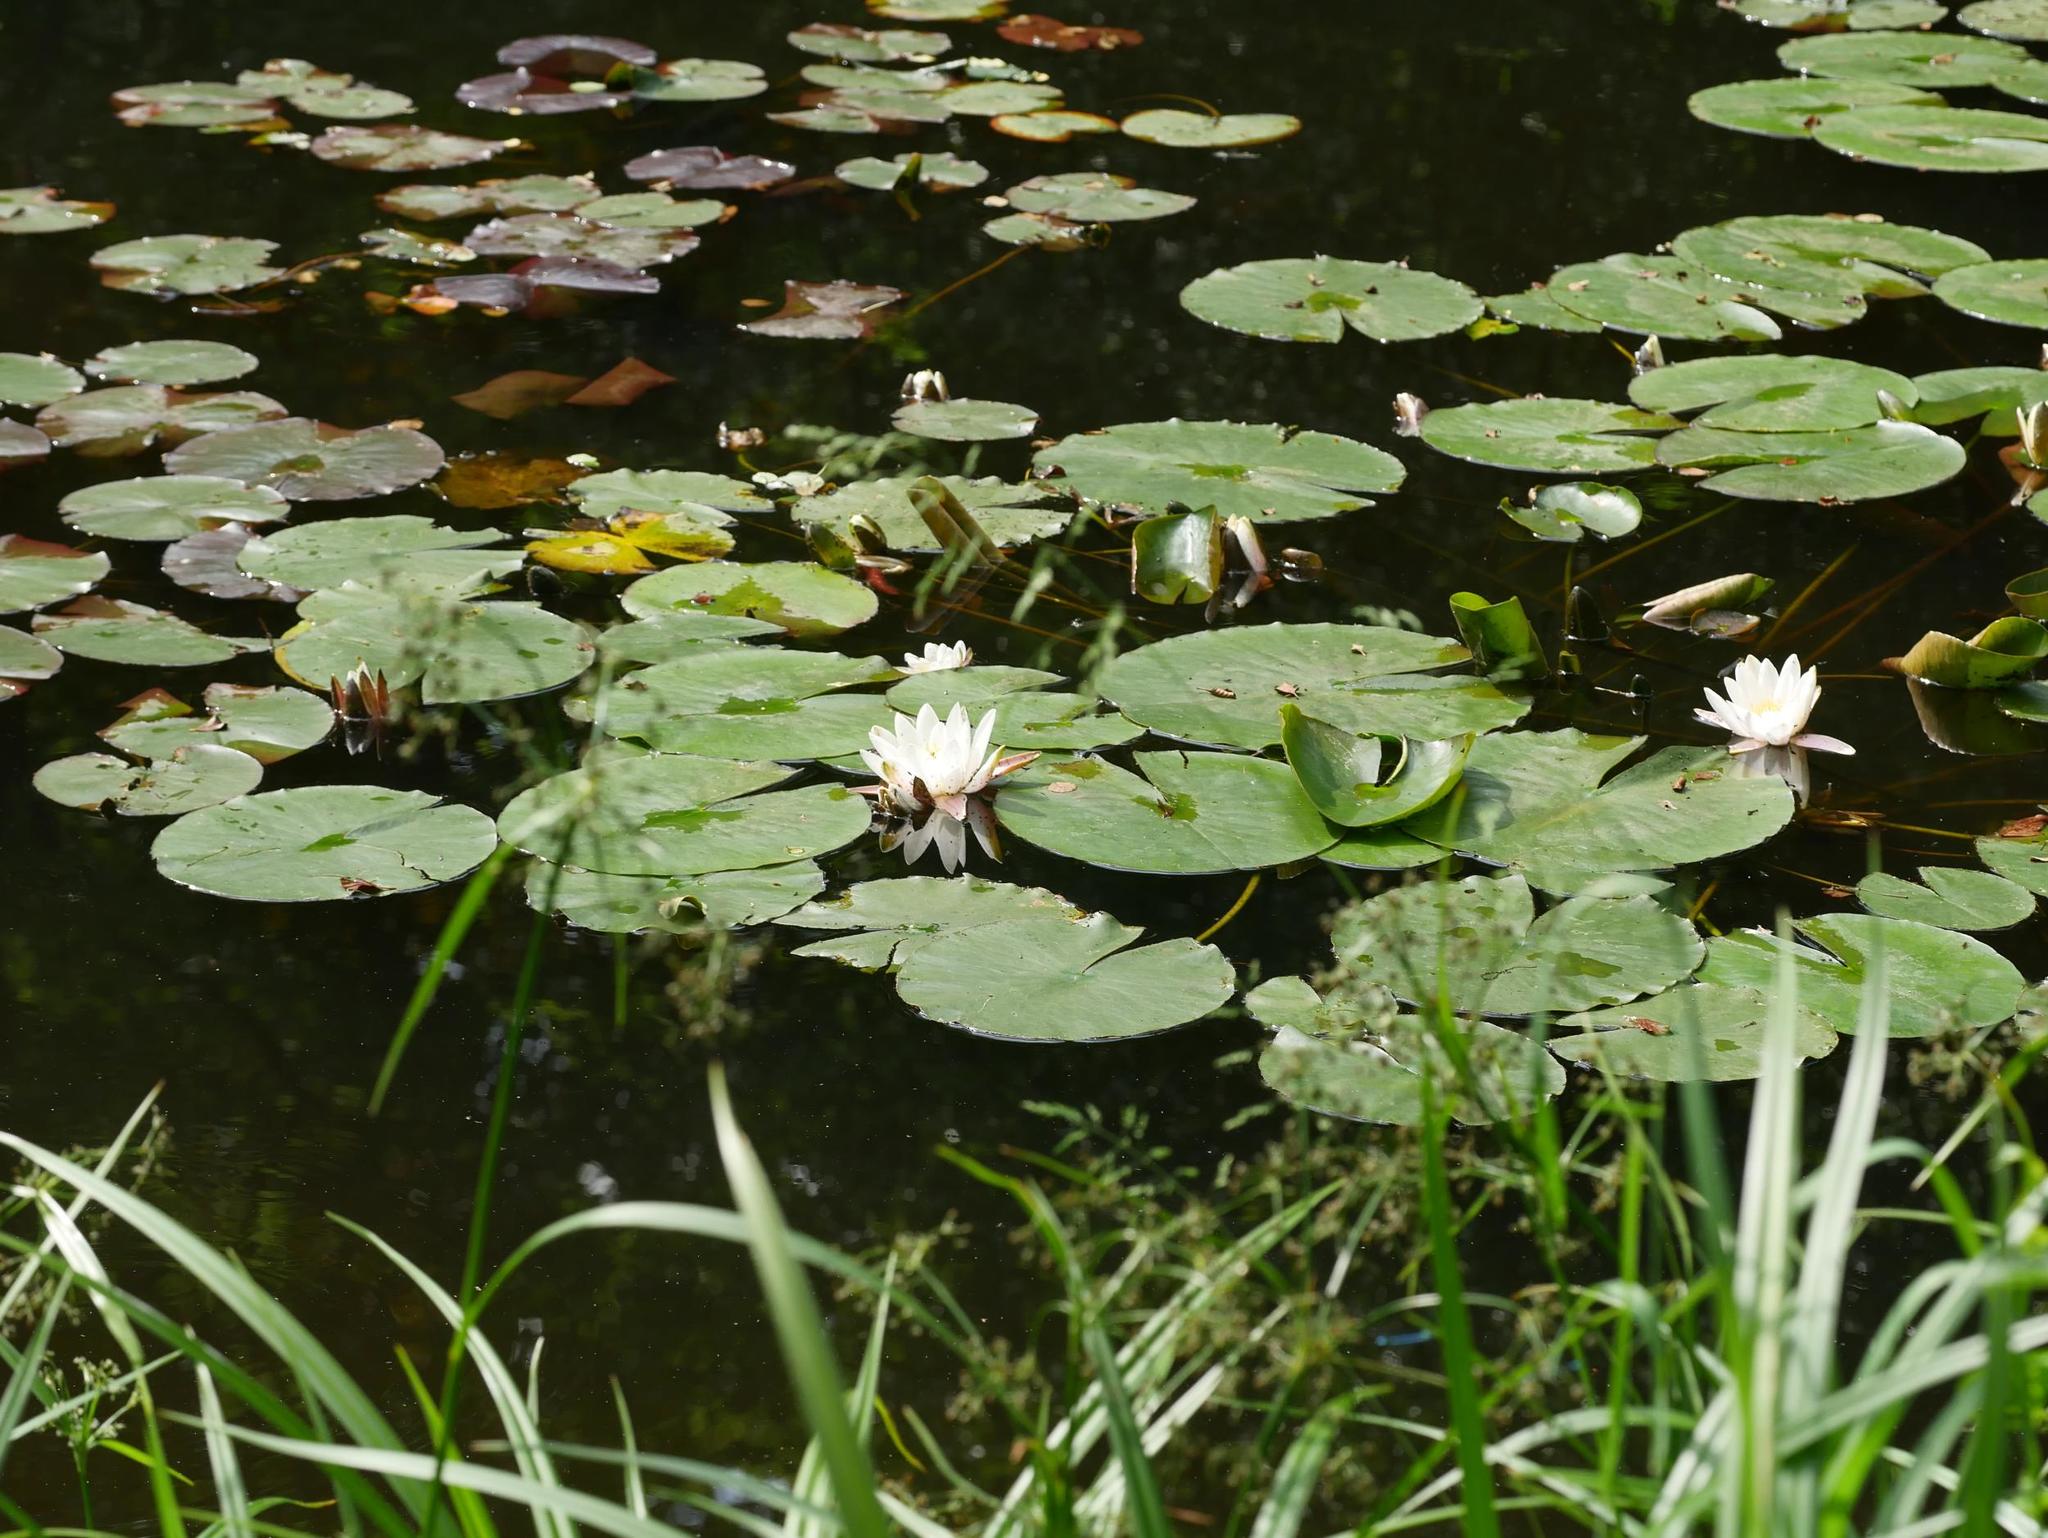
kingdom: Plantae
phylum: Tracheophyta
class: Magnoliopsida
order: Nymphaeales
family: Nymphaeaceae
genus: Nymphaea
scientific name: Nymphaea alba
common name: White water-lily
